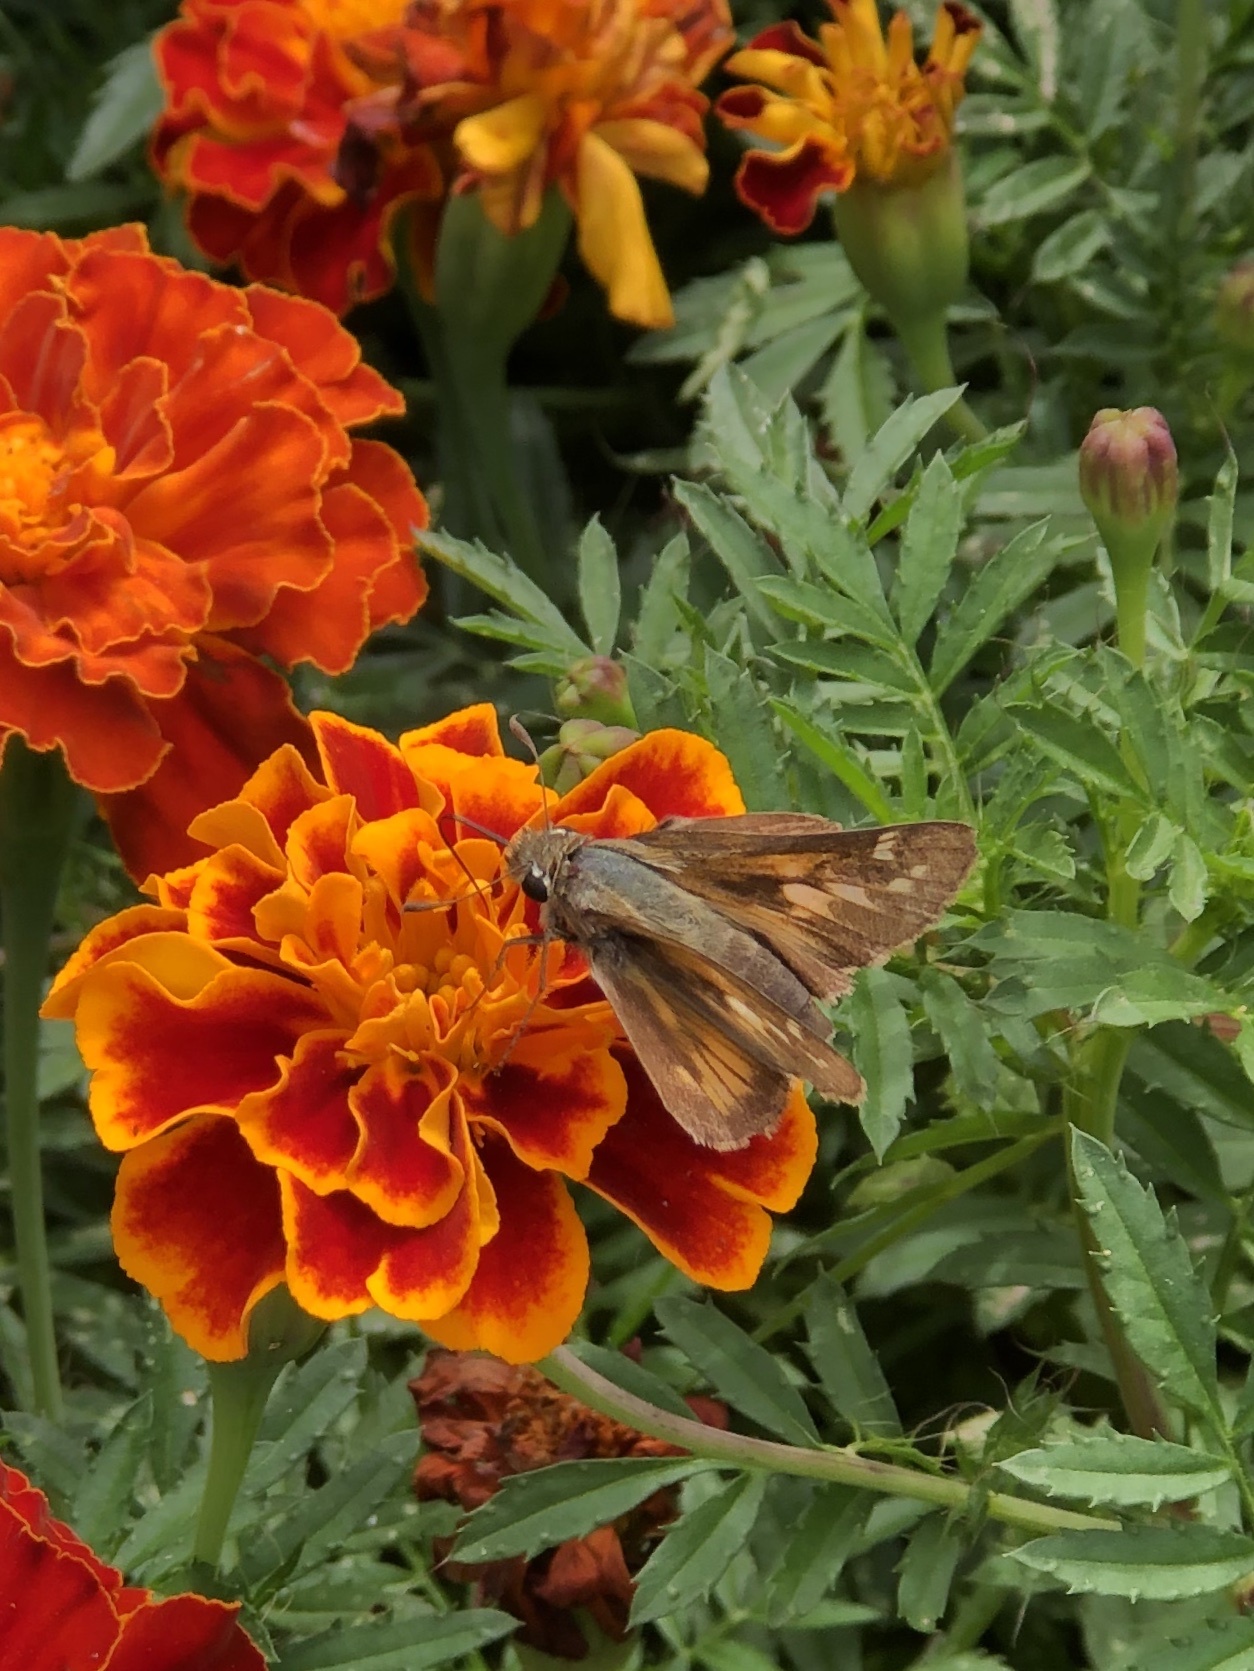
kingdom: Animalia
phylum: Arthropoda
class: Insecta
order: Lepidoptera
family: Hesperiidae
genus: Atalopedes
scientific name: Atalopedes
